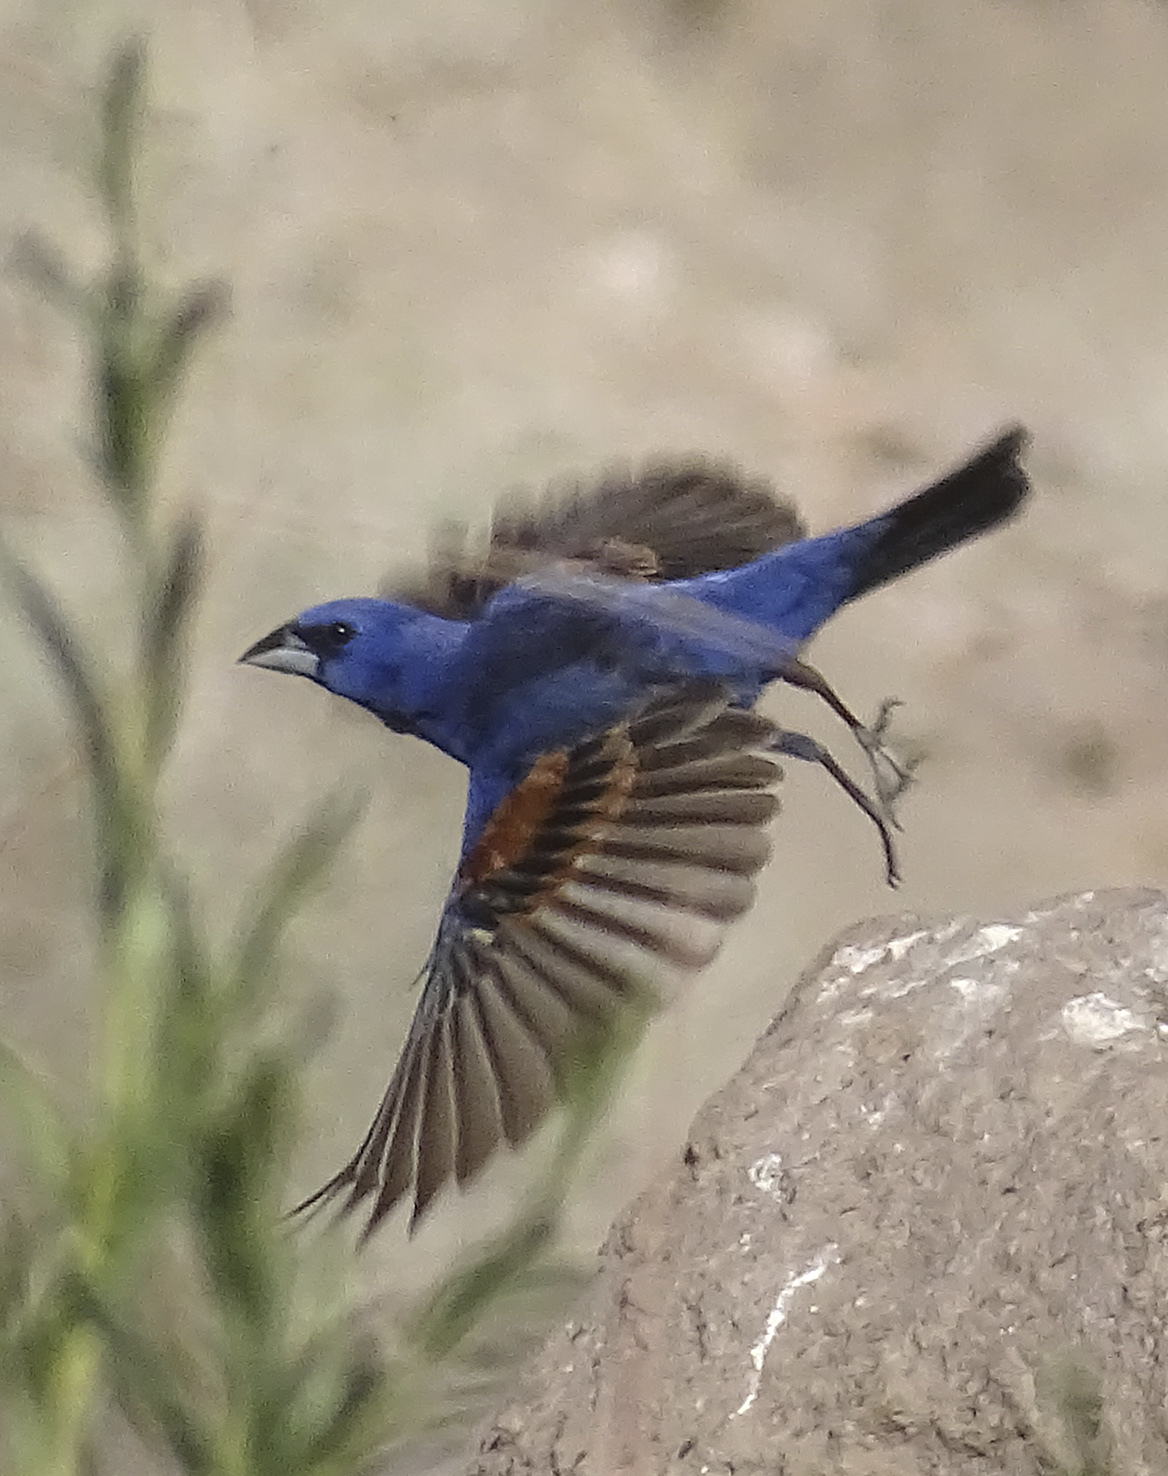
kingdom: Animalia
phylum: Chordata
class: Aves
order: Passeriformes
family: Cardinalidae
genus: Passerina
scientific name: Passerina caerulea
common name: Blue grosbeak
